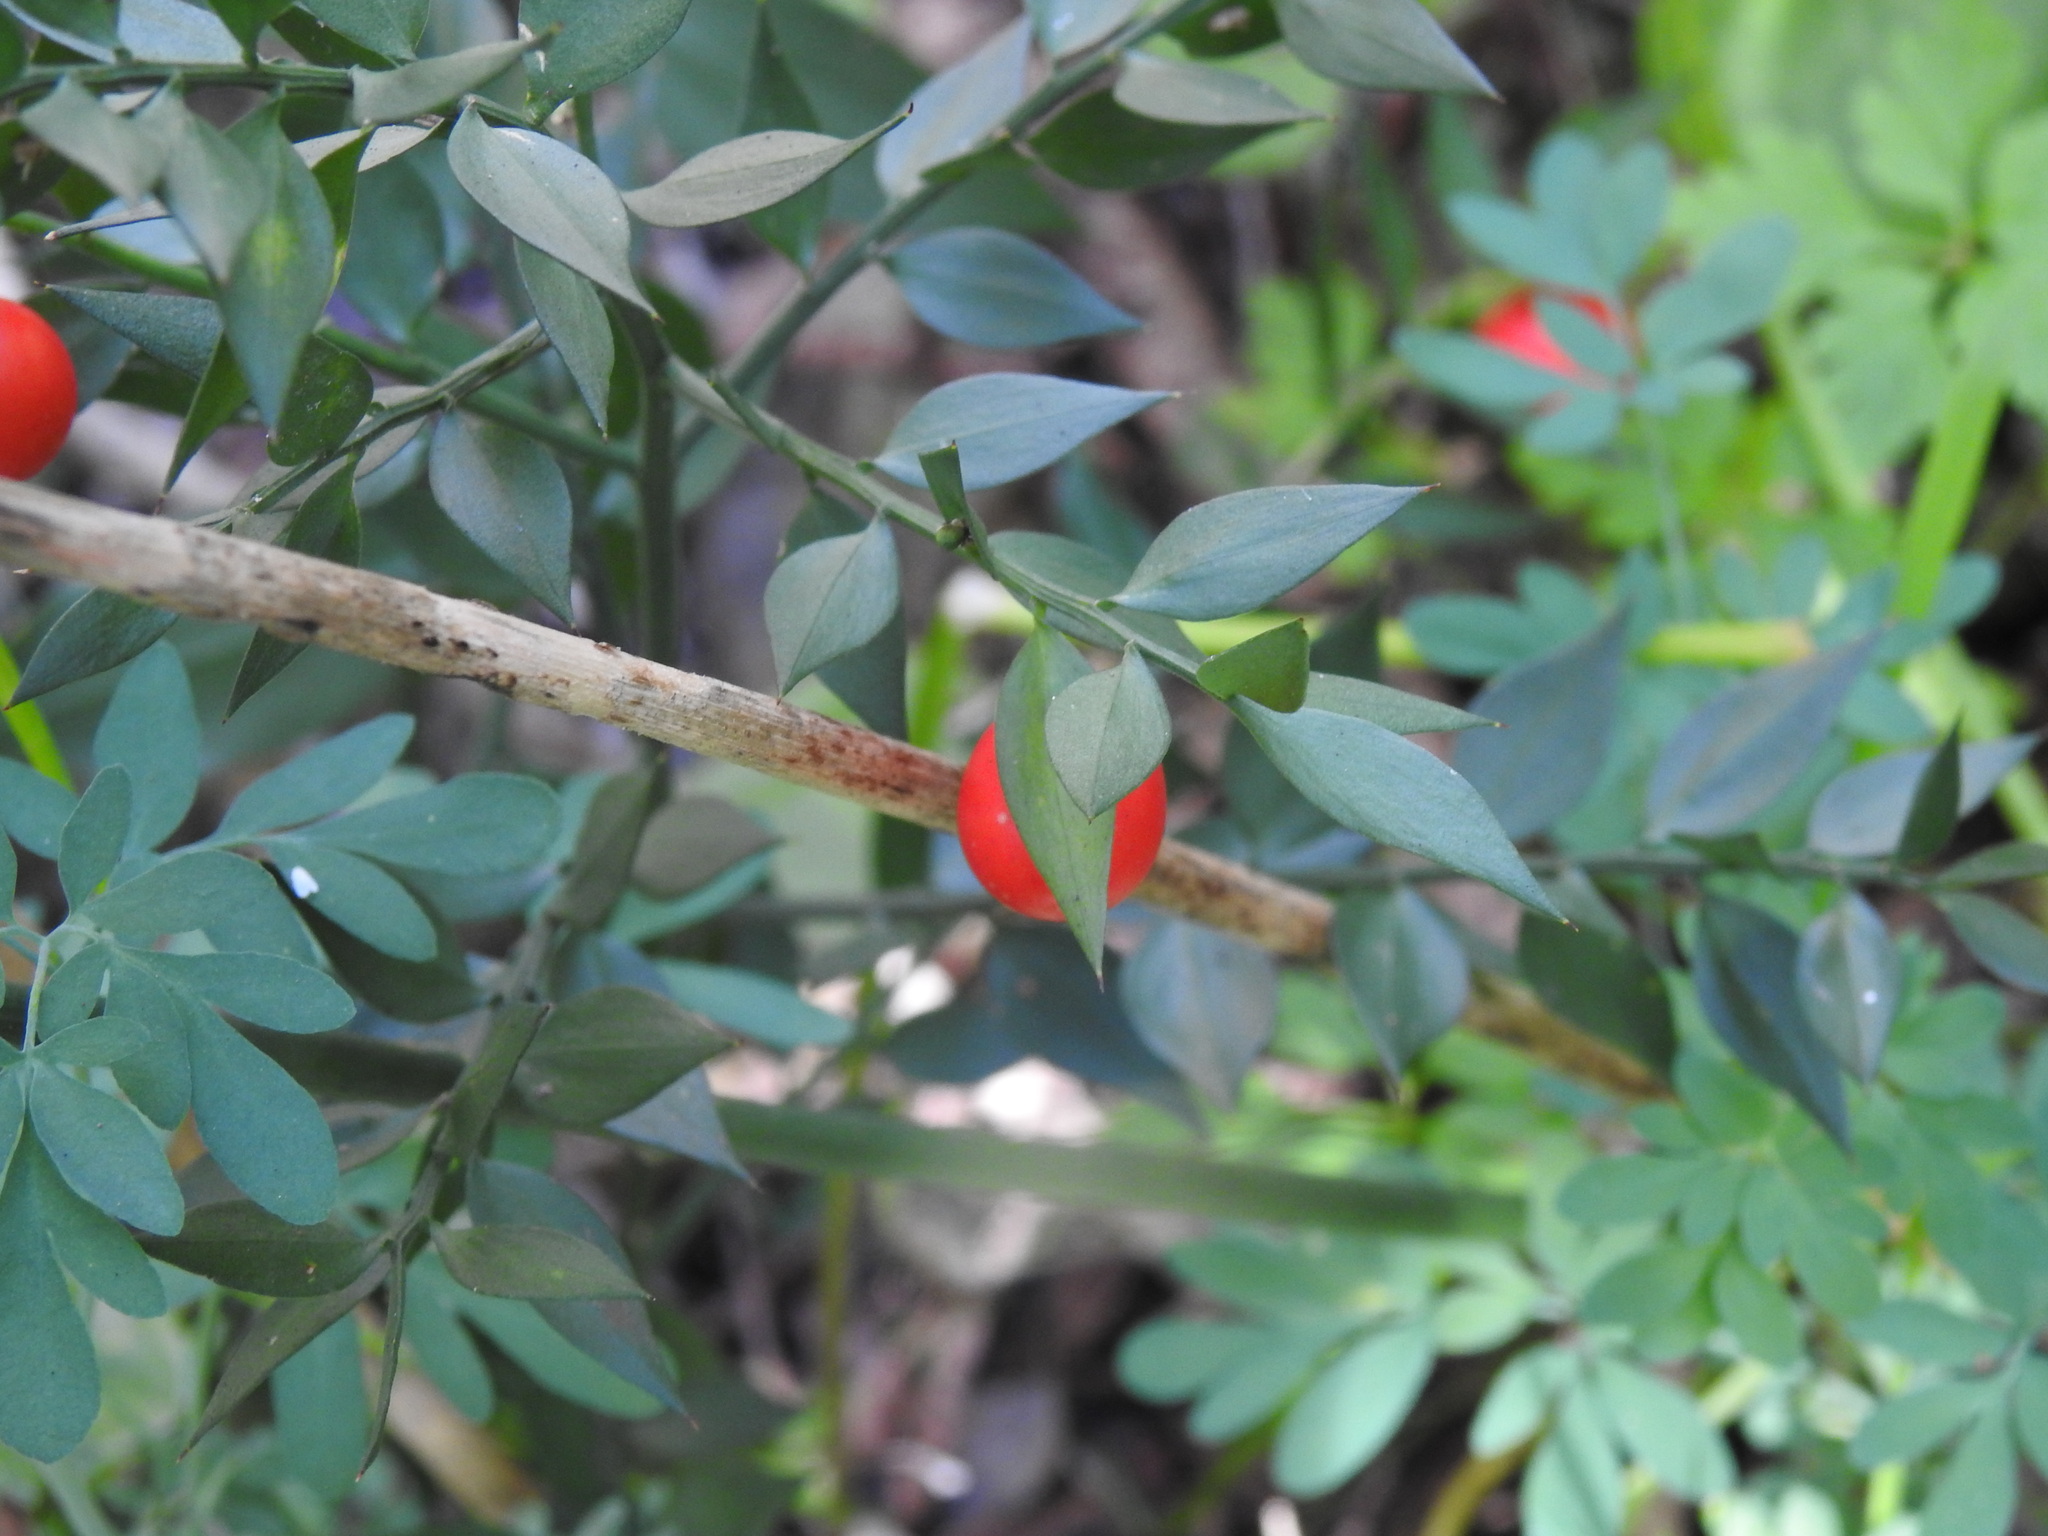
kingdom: Plantae
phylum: Tracheophyta
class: Liliopsida
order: Asparagales
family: Asparagaceae
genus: Ruscus
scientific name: Ruscus aculeatus
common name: Butcher's-broom
